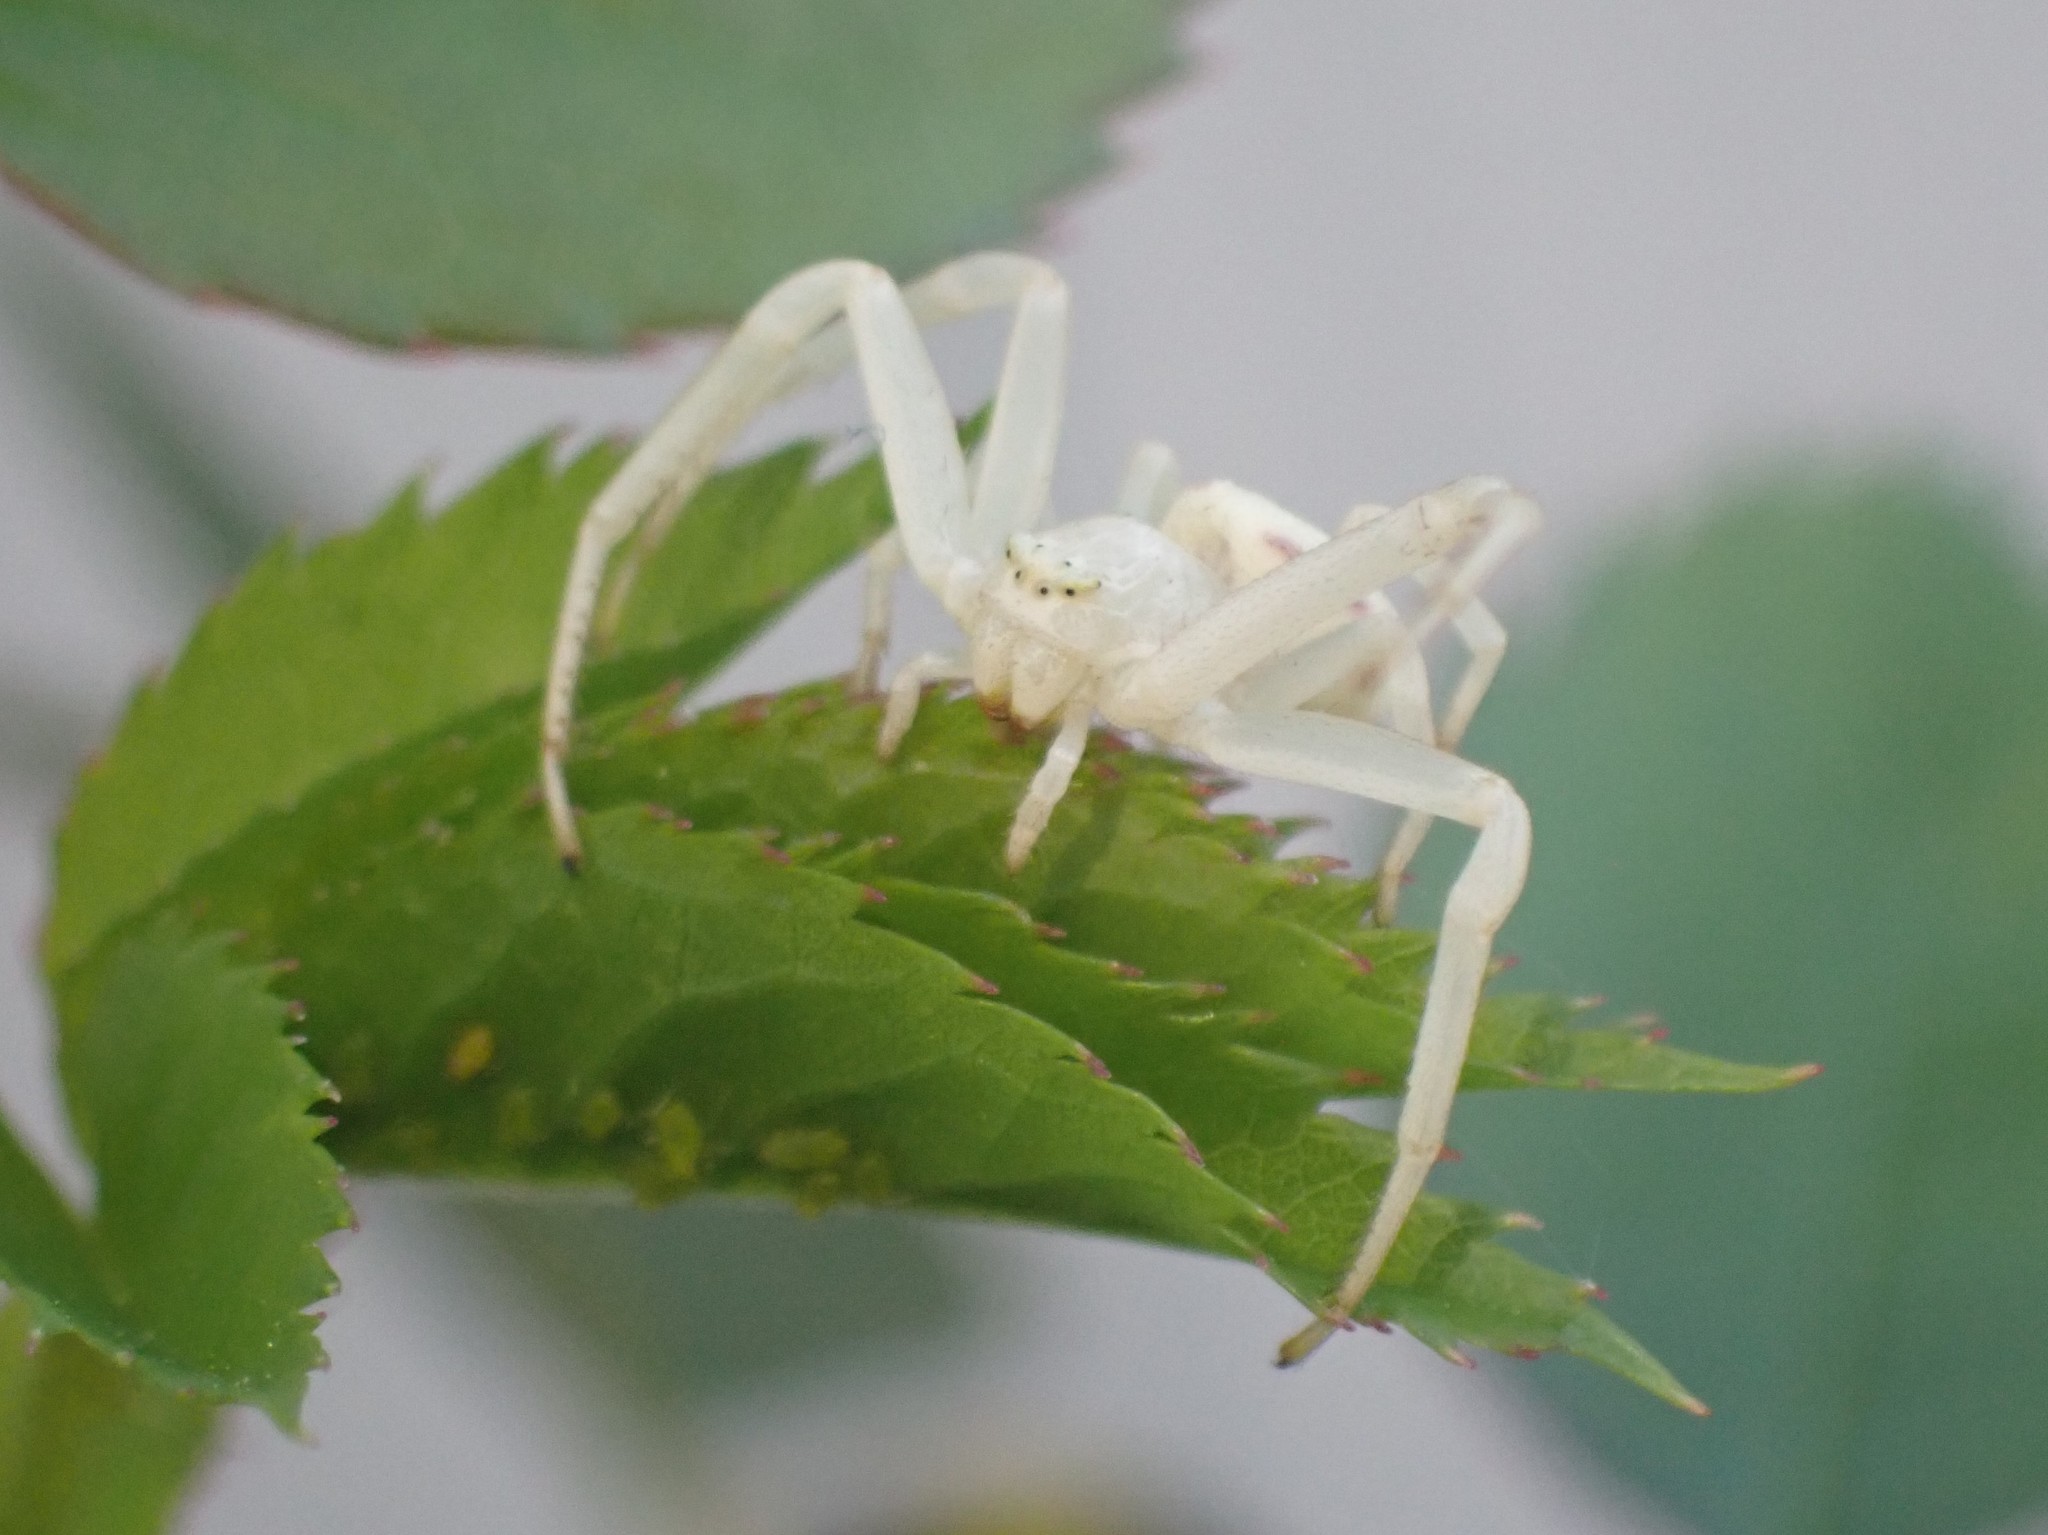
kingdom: Animalia
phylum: Arthropoda
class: Arachnida
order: Araneae
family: Thomisidae
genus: Misumena
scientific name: Misumena vatia
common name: Goldenrod crab spider
